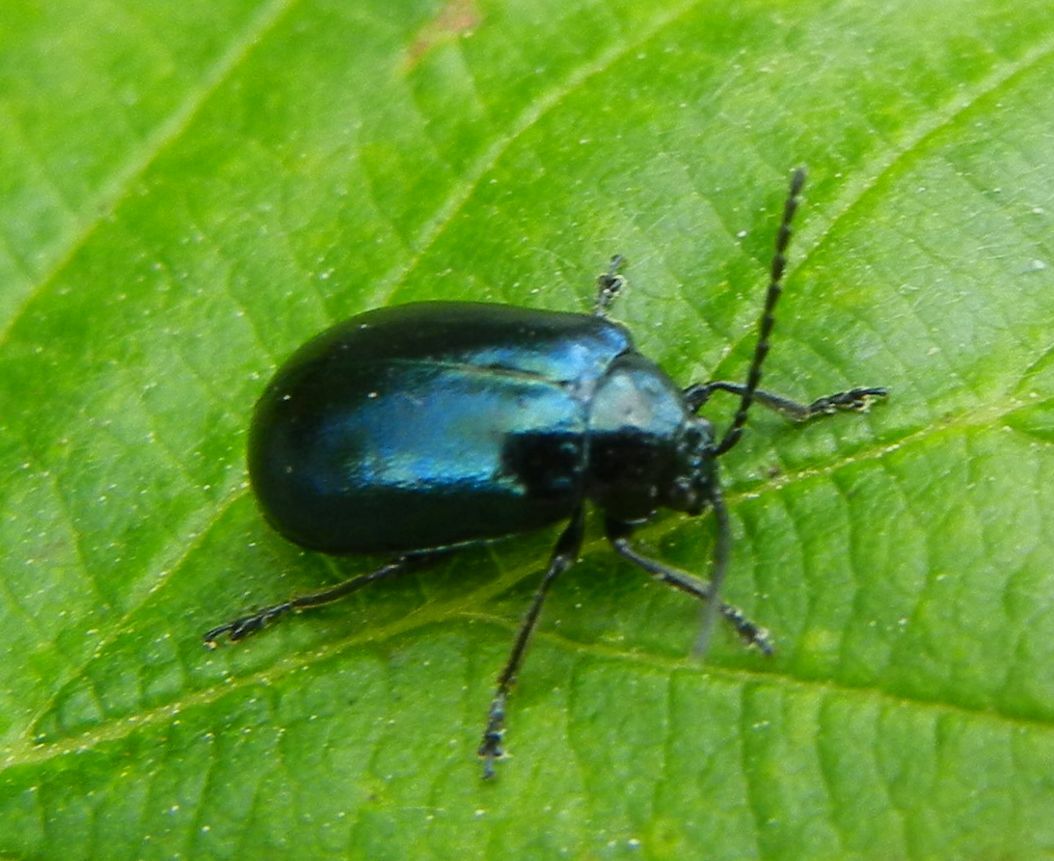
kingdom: Animalia
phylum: Arthropoda
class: Insecta
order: Coleoptera
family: Chrysomelidae
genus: Agelastica
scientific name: Agelastica alni
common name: Alder leaf beetle
